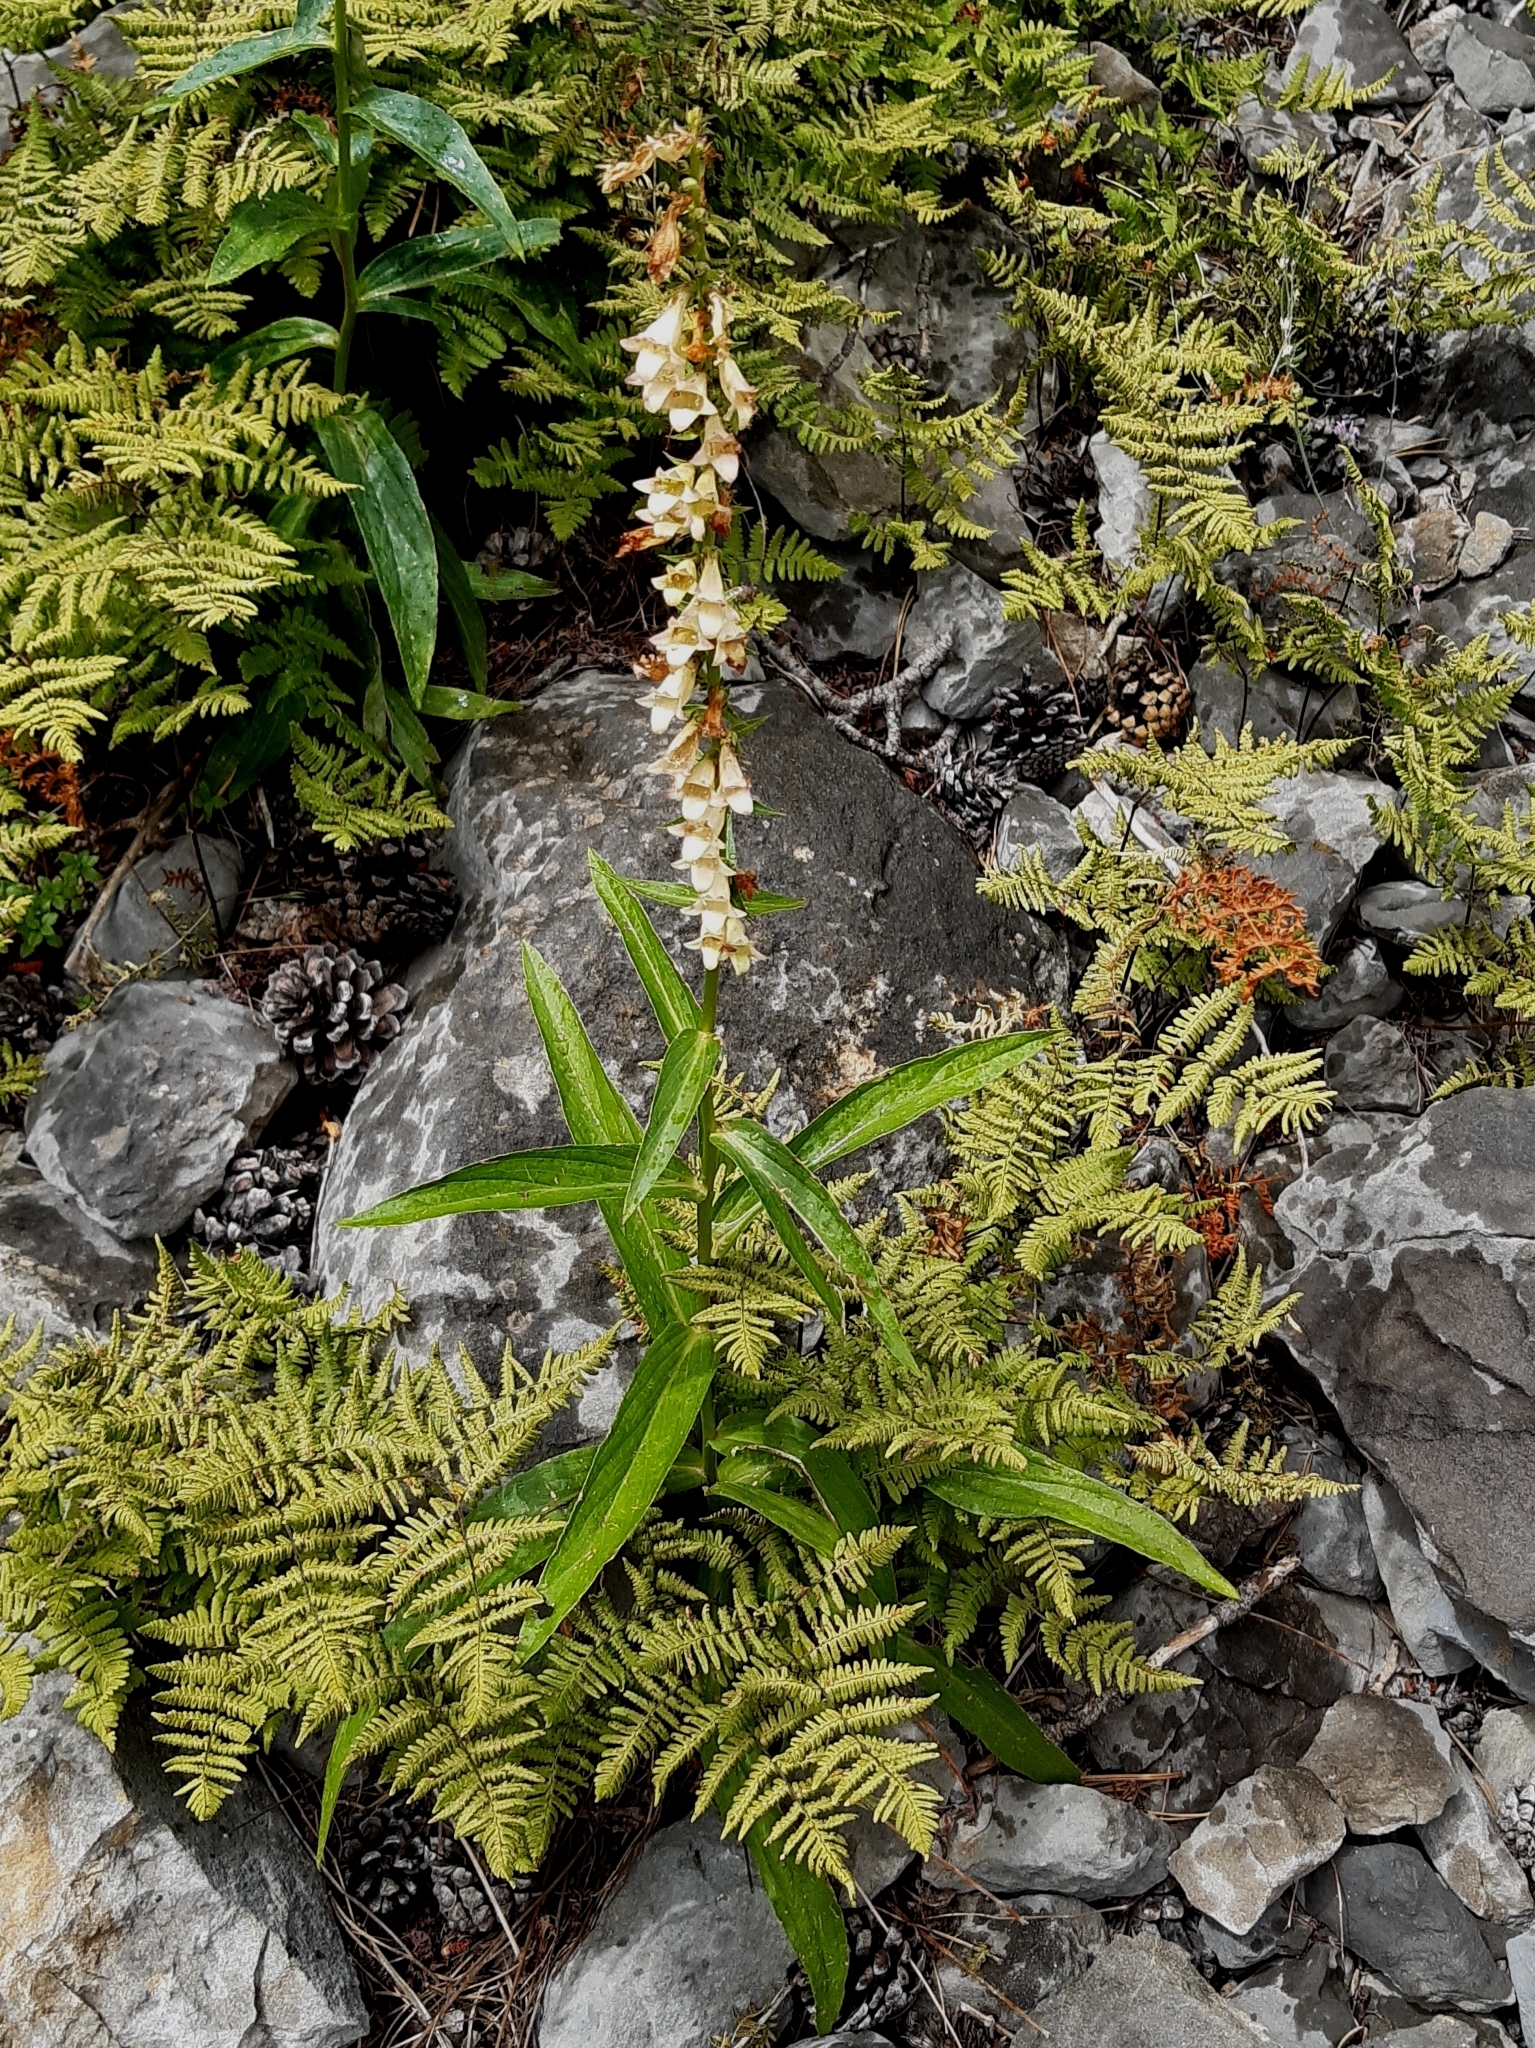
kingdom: Plantae
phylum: Tracheophyta
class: Magnoliopsida
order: Lamiales
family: Plantaginaceae
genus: Digitalis
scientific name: Digitalis lutea
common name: Straw foxglove
